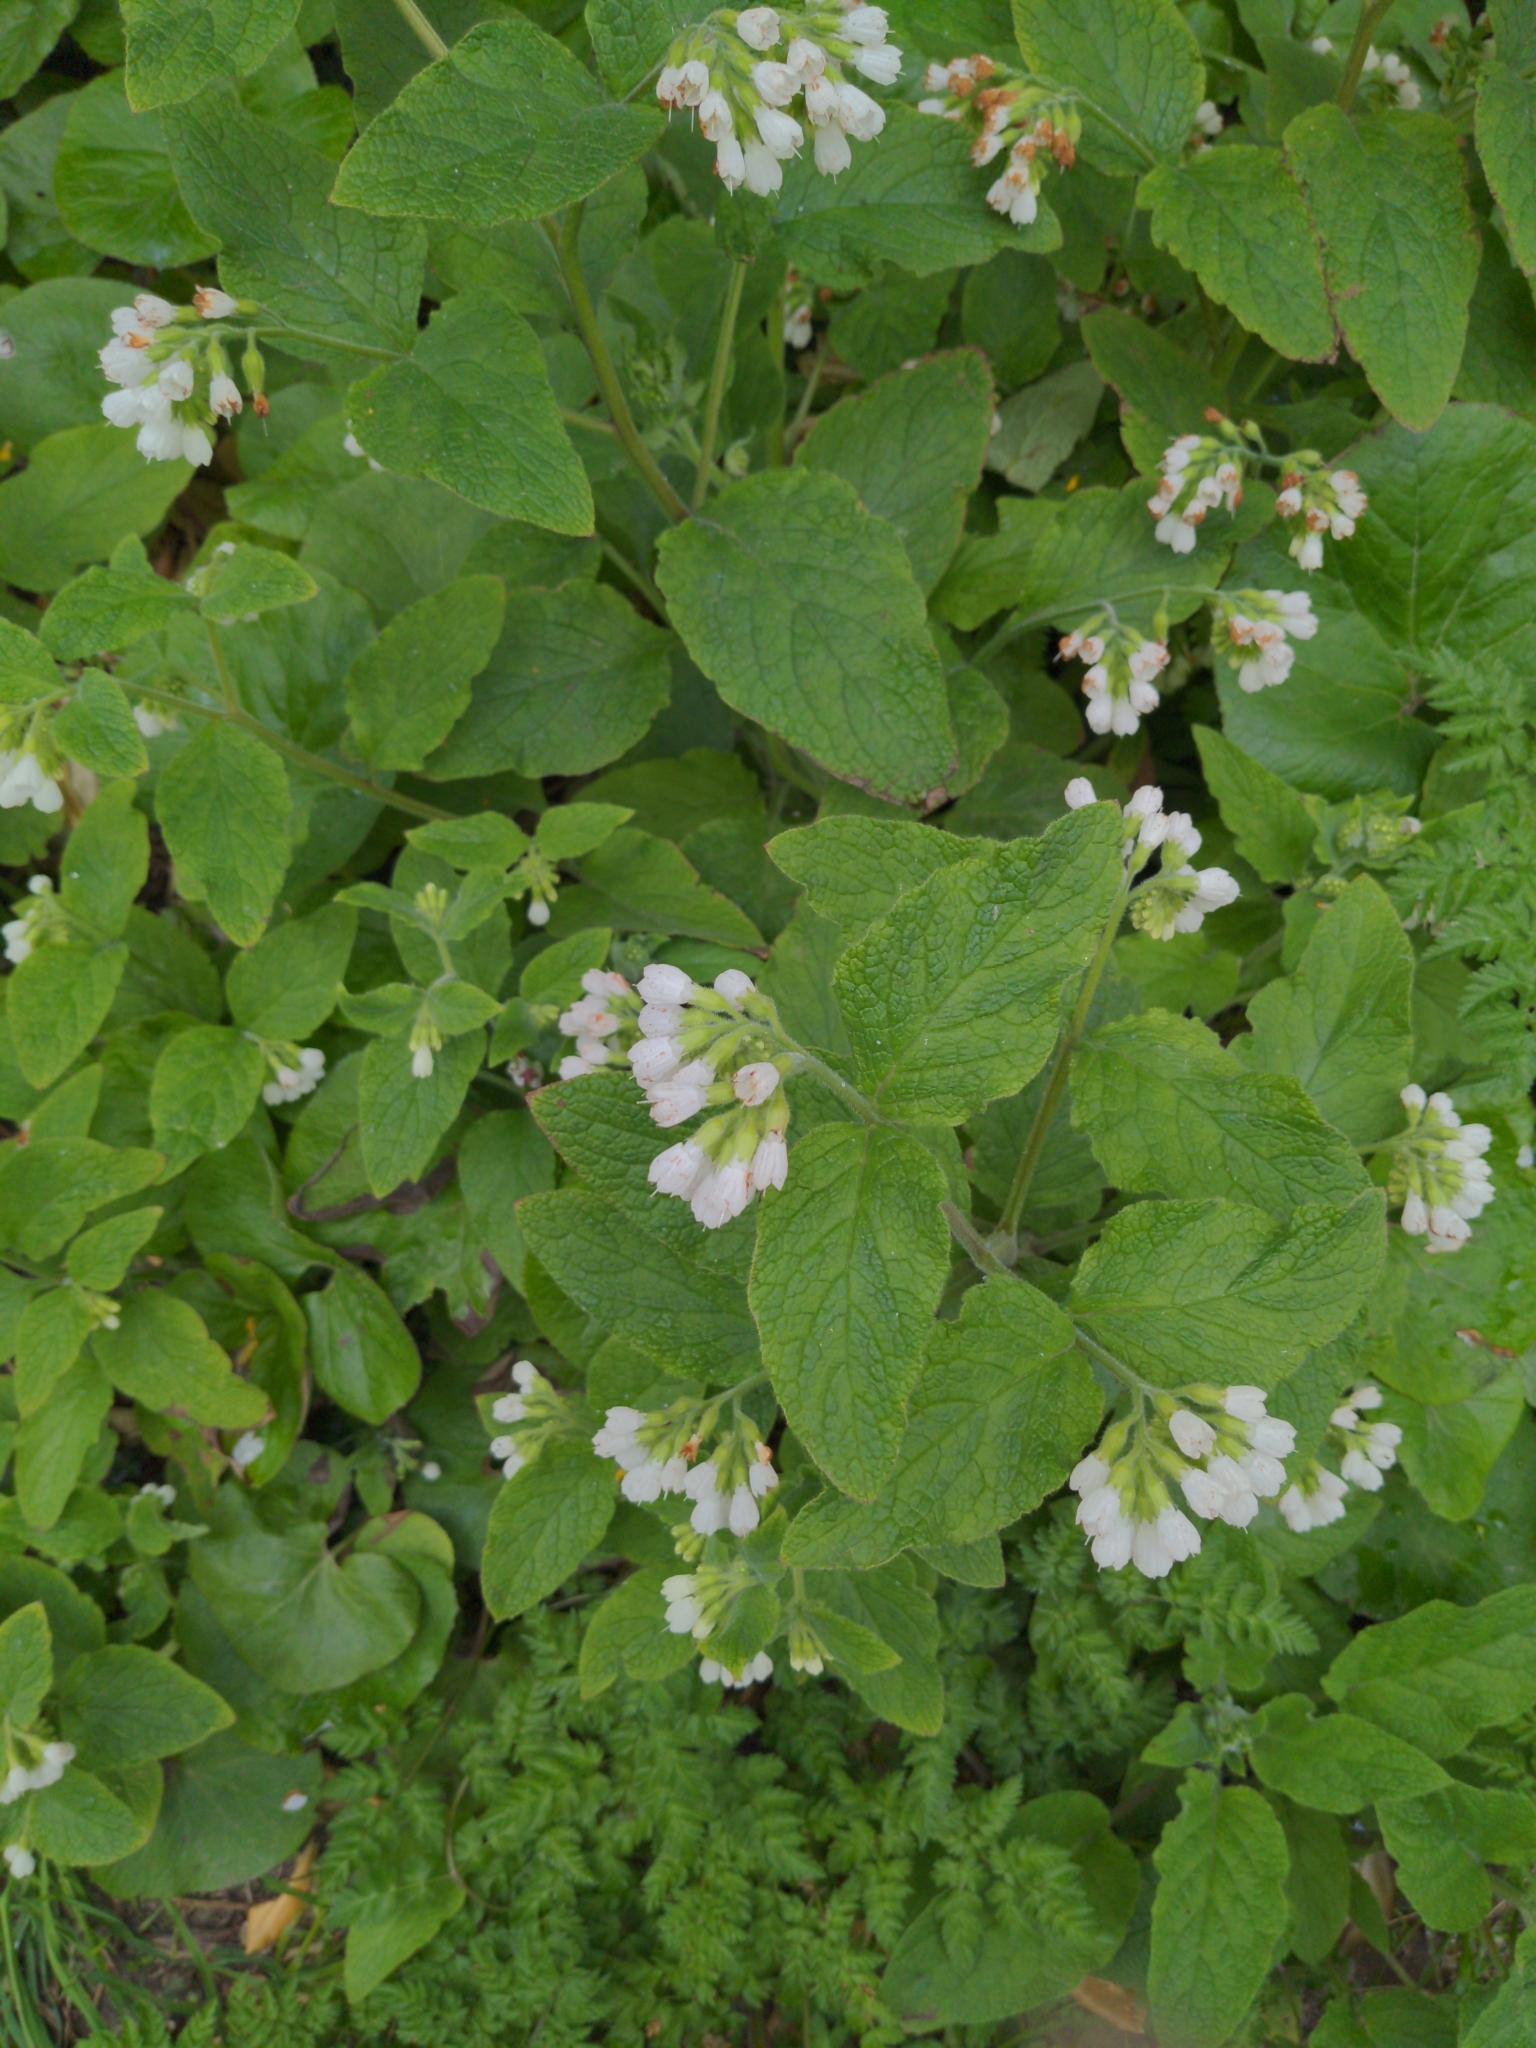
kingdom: Plantae
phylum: Tracheophyta
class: Magnoliopsida
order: Boraginales
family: Boraginaceae
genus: Symphytum
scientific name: Symphytum orientale
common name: White comfrey
